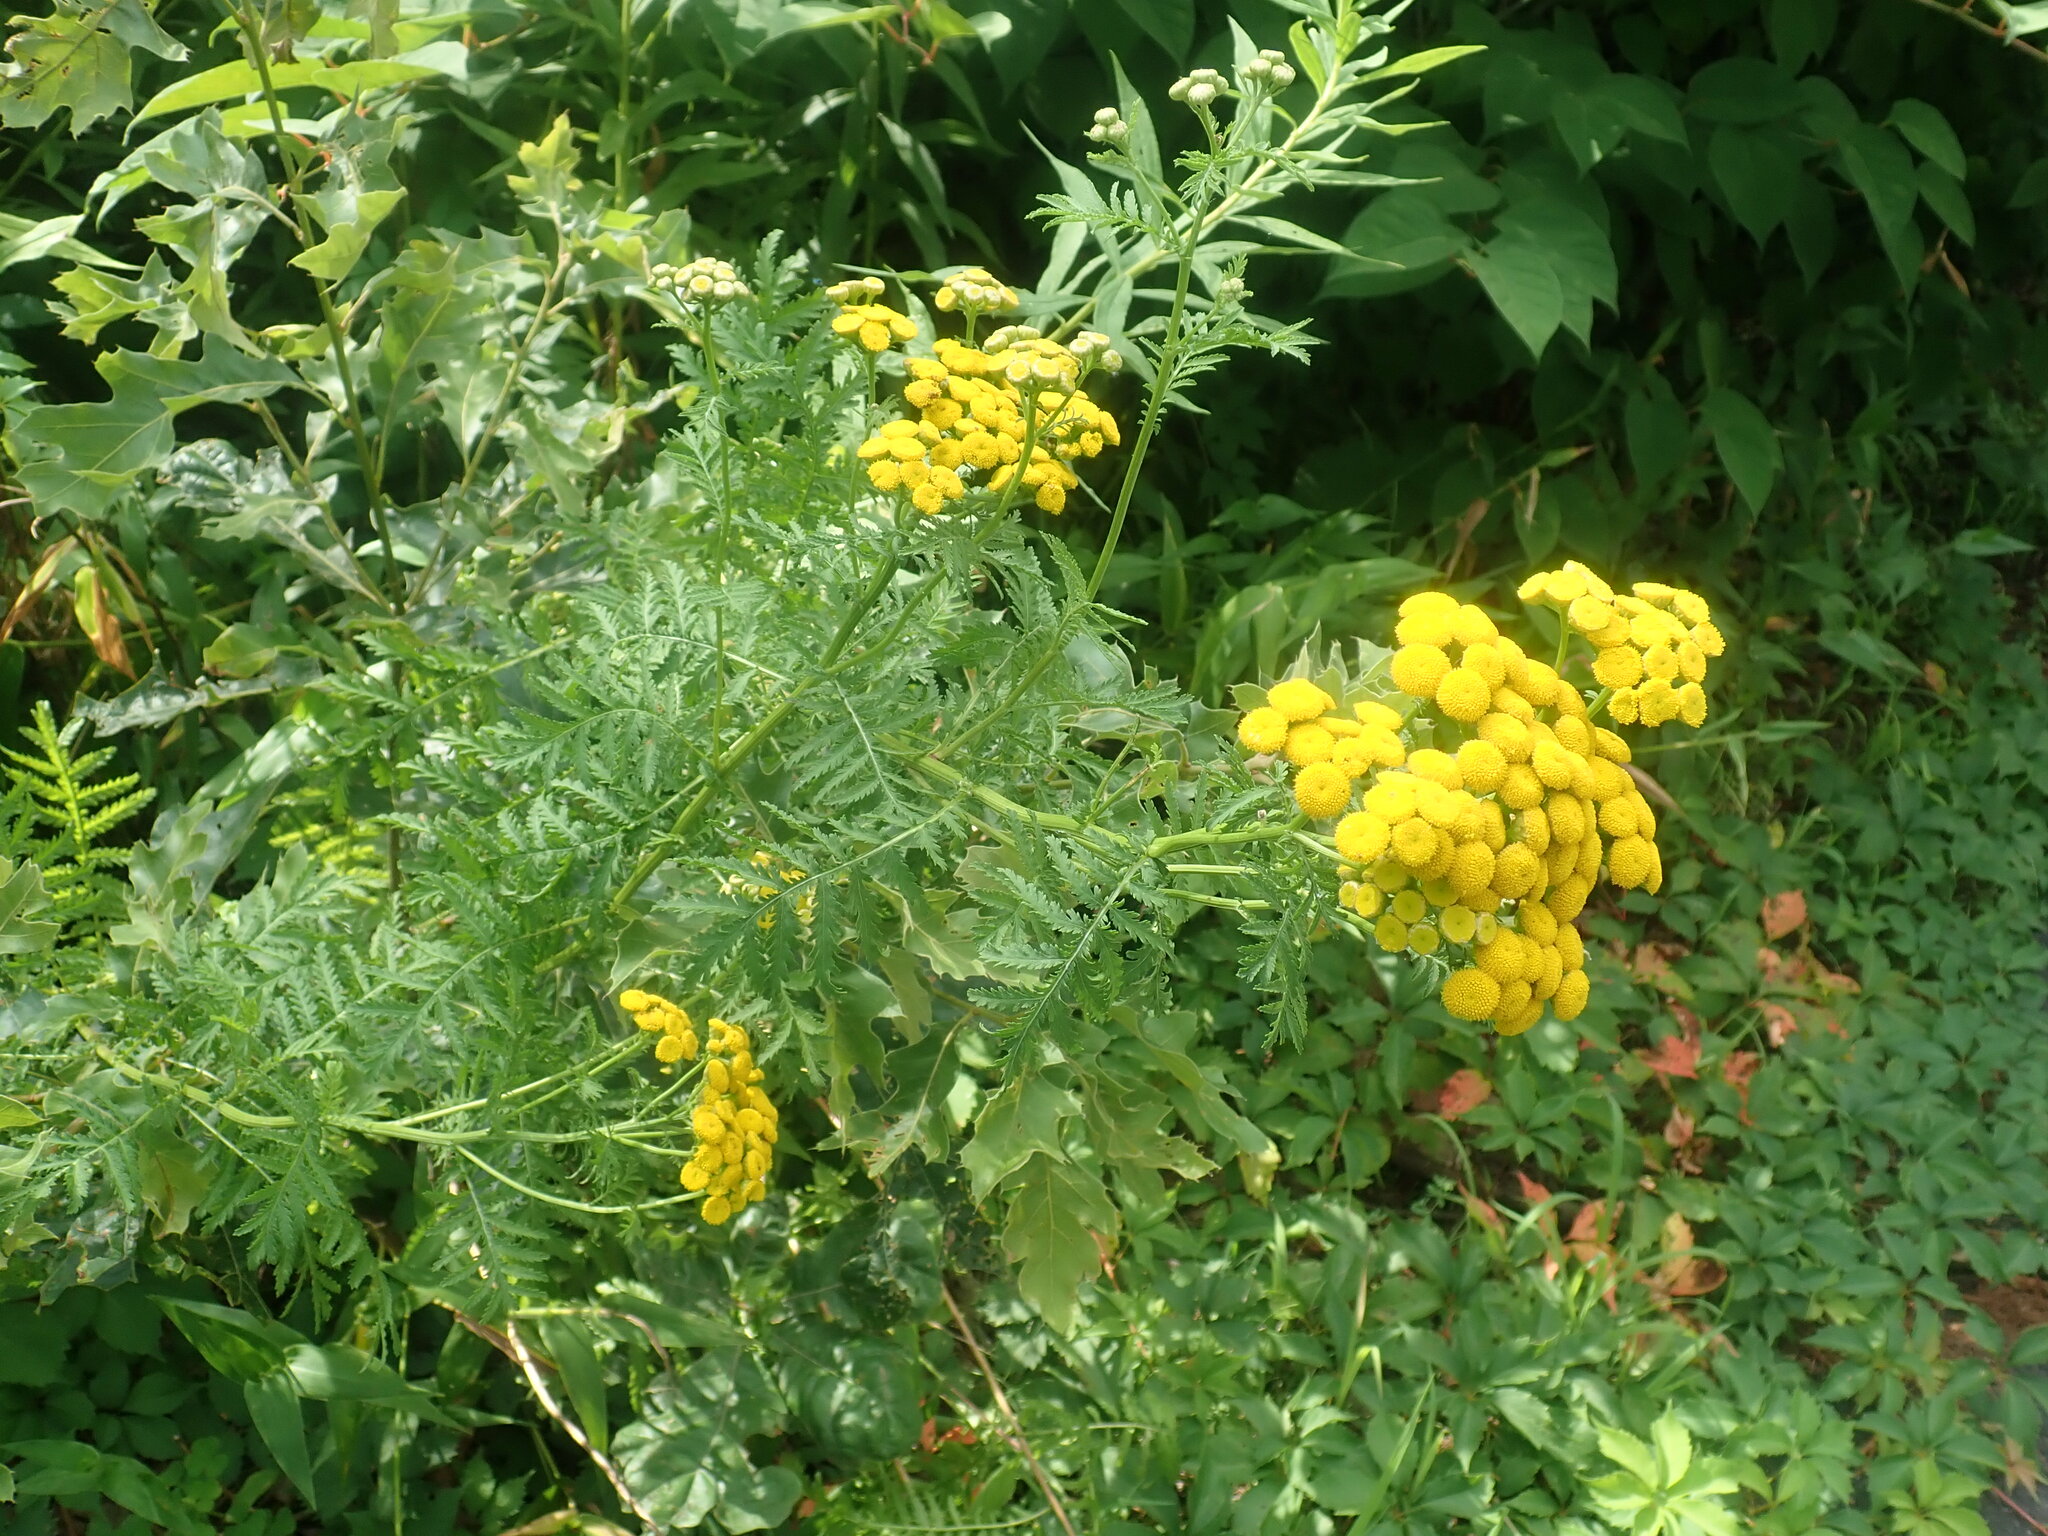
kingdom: Plantae
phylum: Tracheophyta
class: Magnoliopsida
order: Asterales
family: Asteraceae
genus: Tanacetum
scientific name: Tanacetum vulgare
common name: Common tansy
